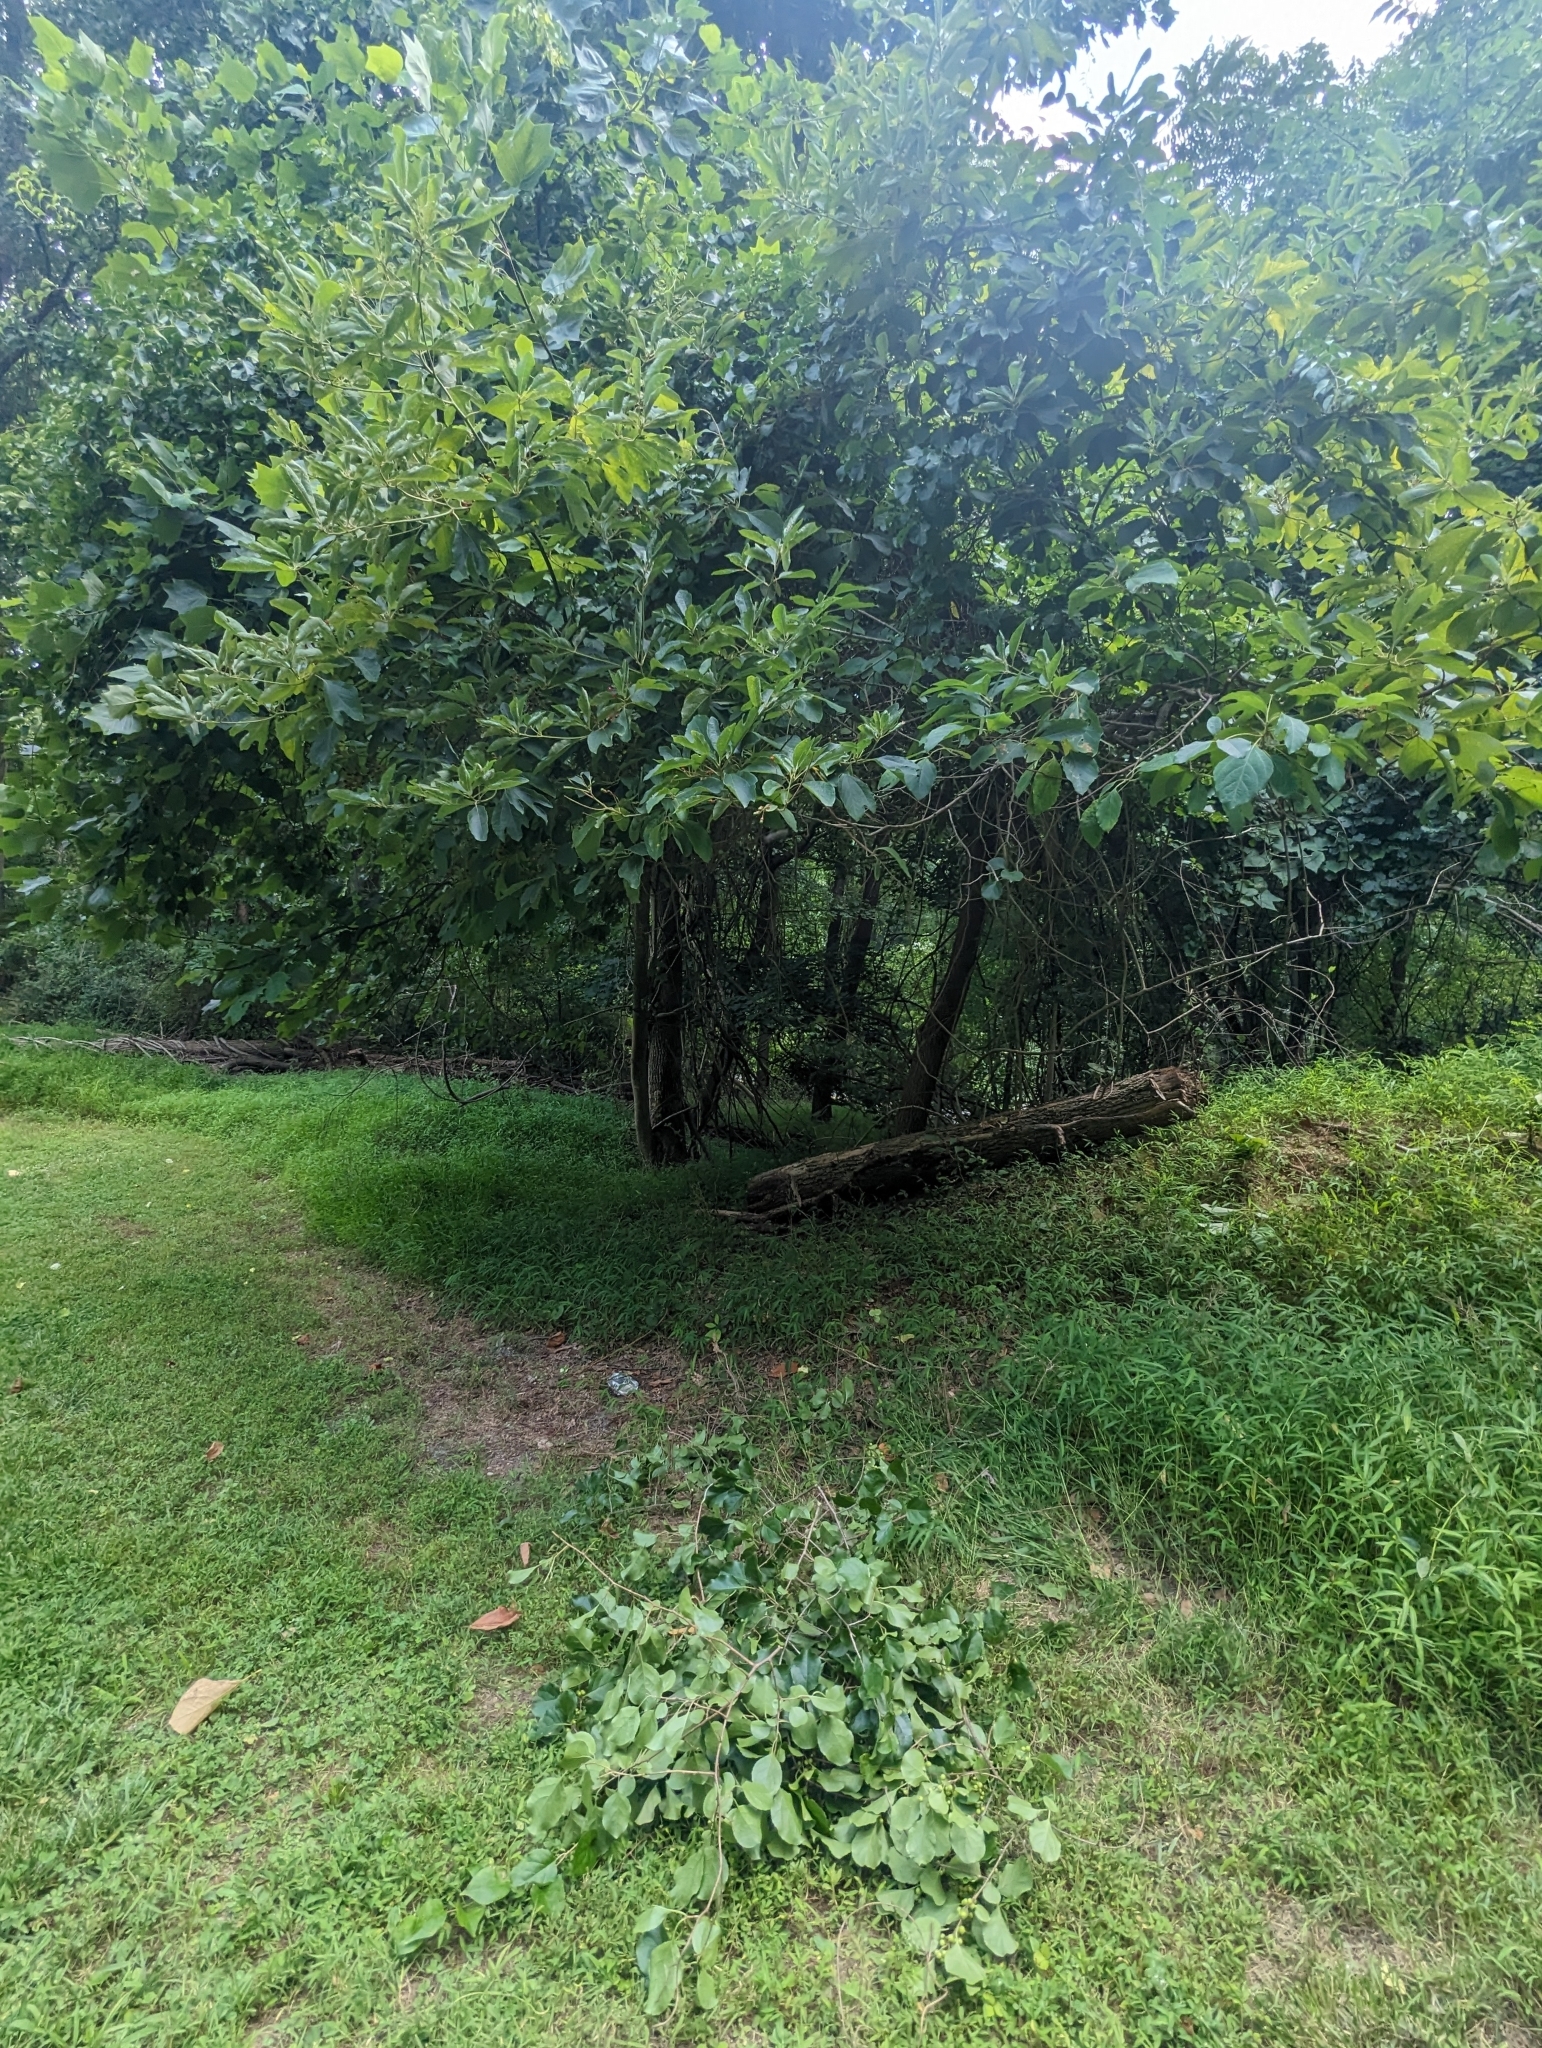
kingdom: Plantae
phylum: Tracheophyta
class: Magnoliopsida
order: Laurales
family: Lauraceae
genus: Sassafras
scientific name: Sassafras albidum
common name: Sassafras
